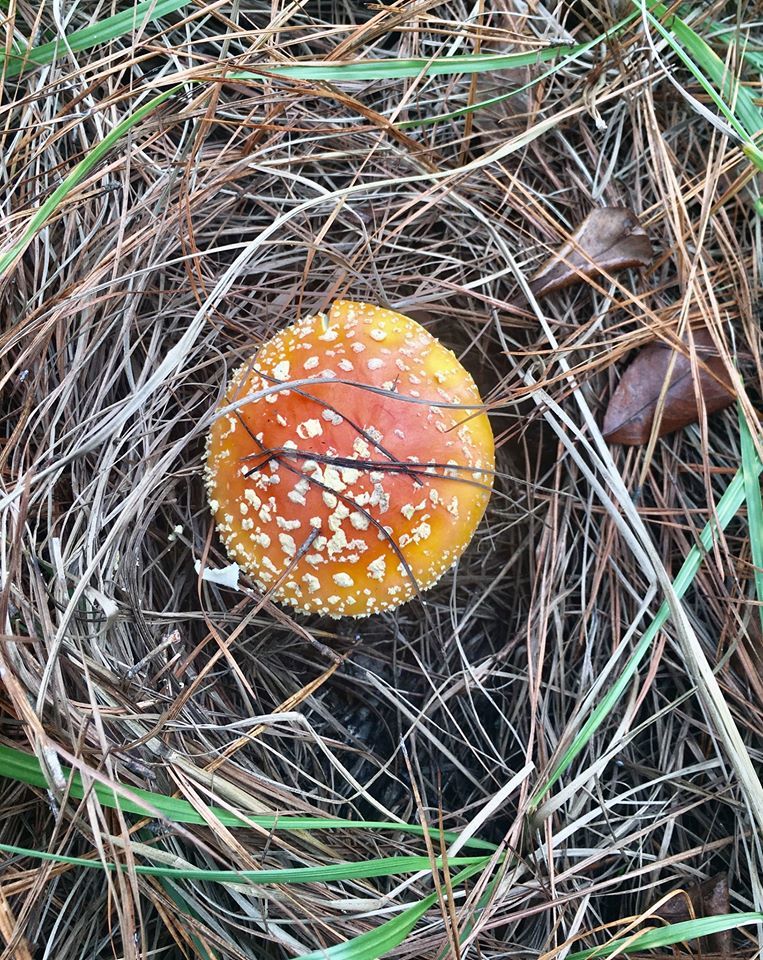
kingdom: Fungi
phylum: Basidiomycota
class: Agaricomycetes
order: Agaricales
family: Amanitaceae
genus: Amanita
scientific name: Amanita persicina
